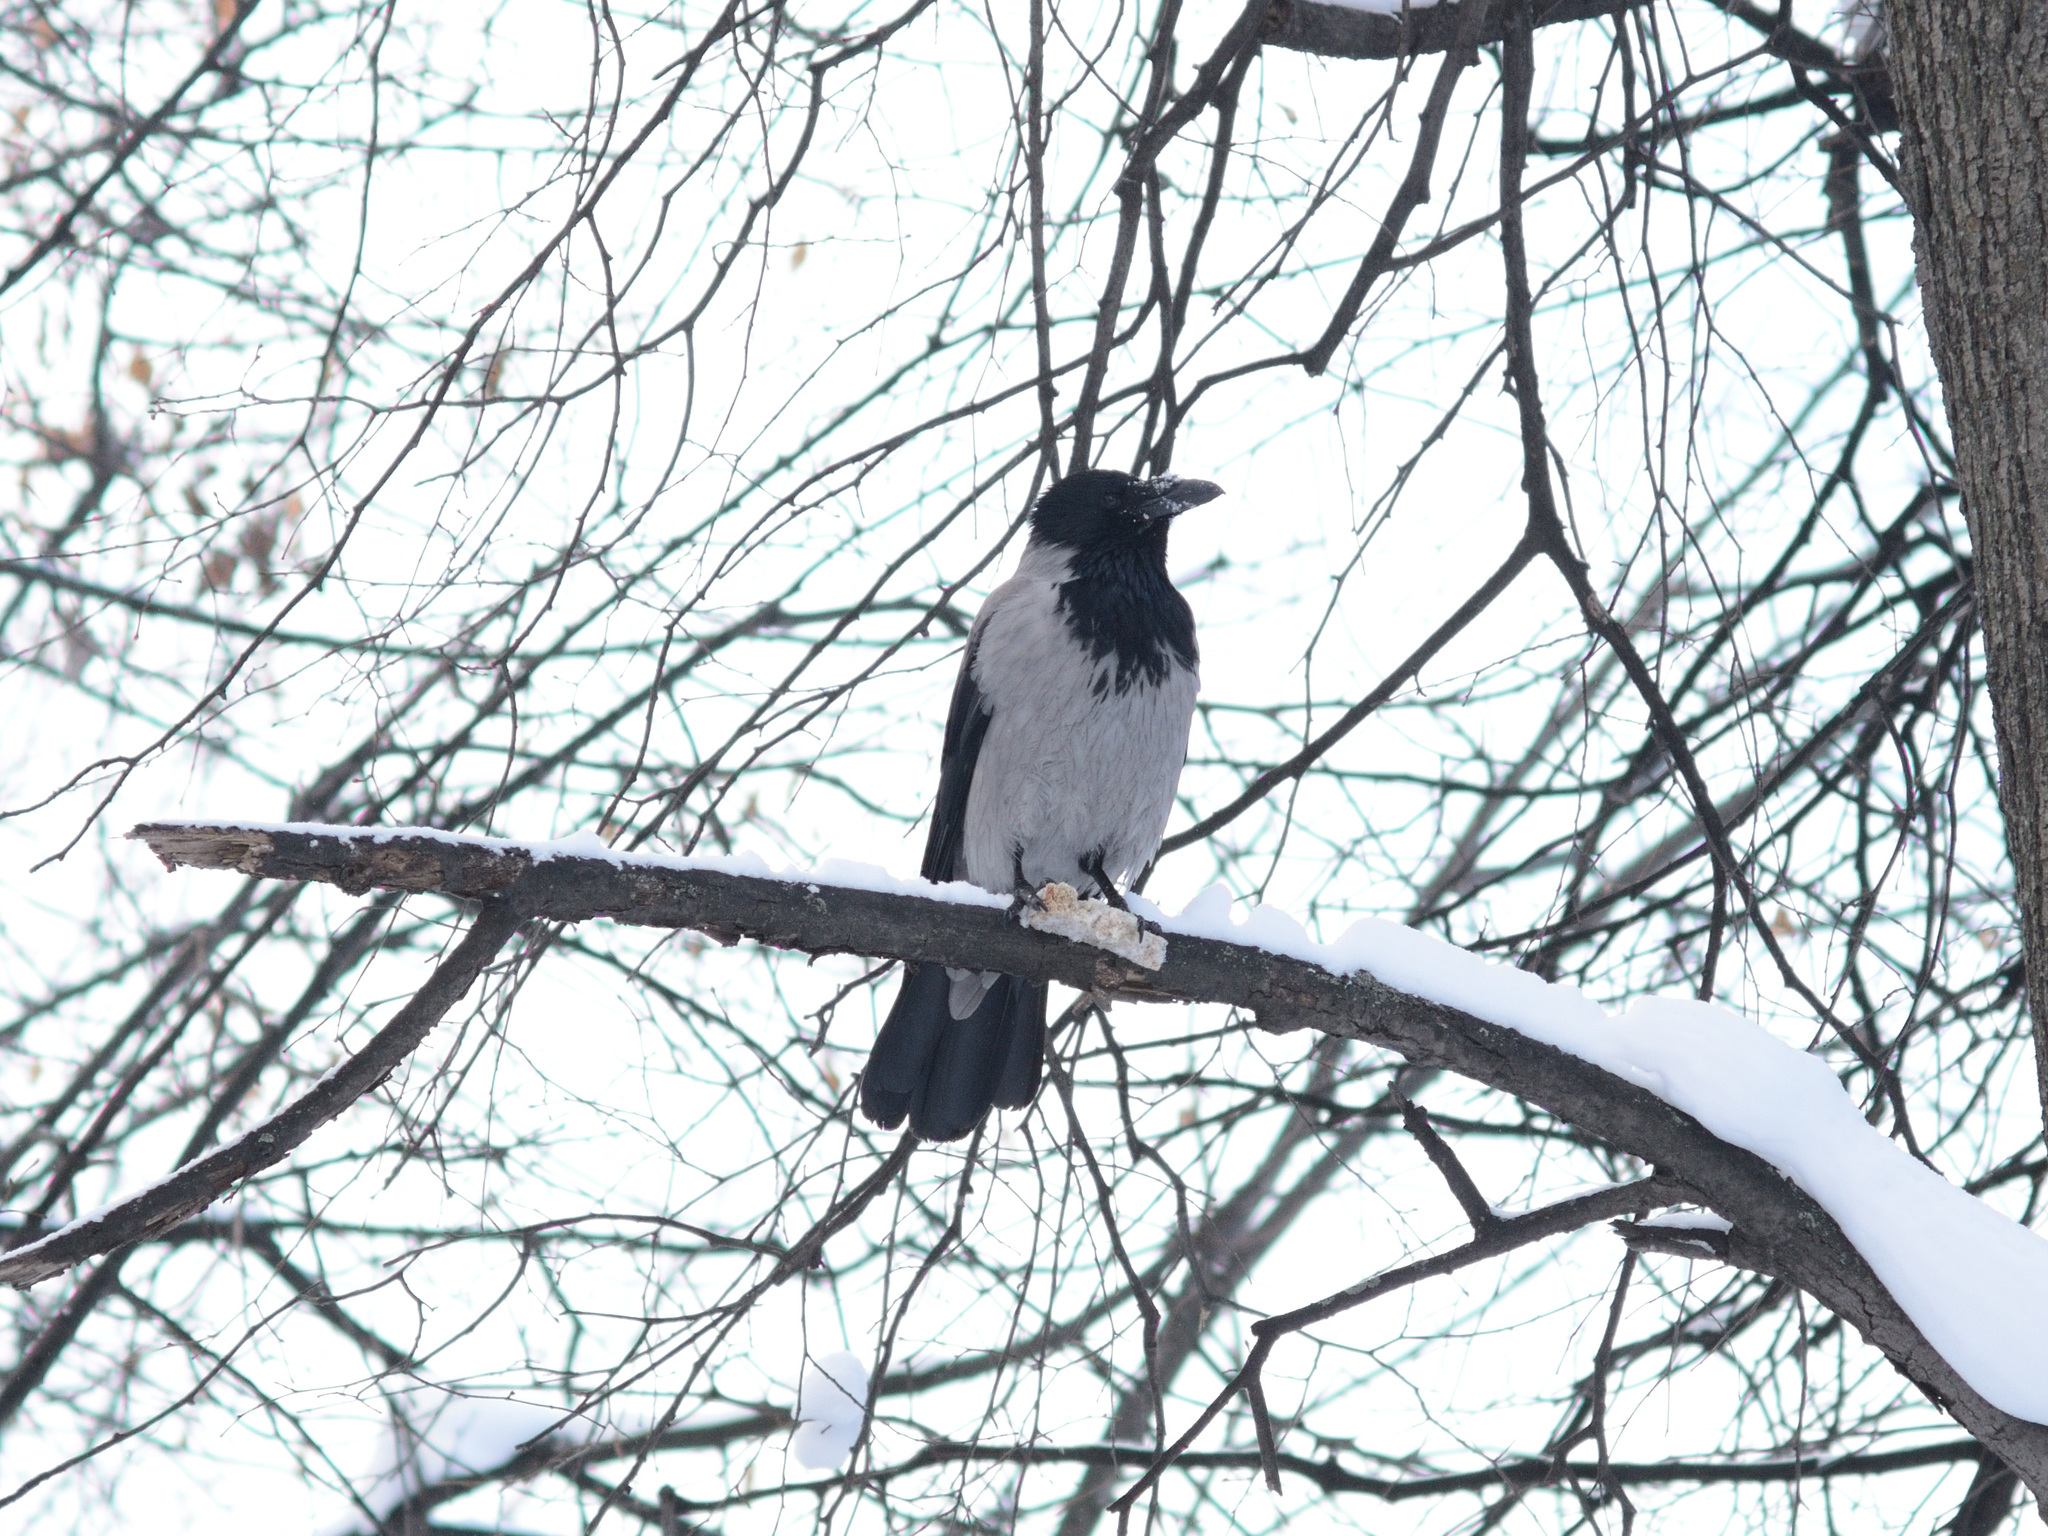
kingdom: Animalia
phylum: Chordata
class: Aves
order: Passeriformes
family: Corvidae
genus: Corvus
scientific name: Corvus cornix
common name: Hooded crow
